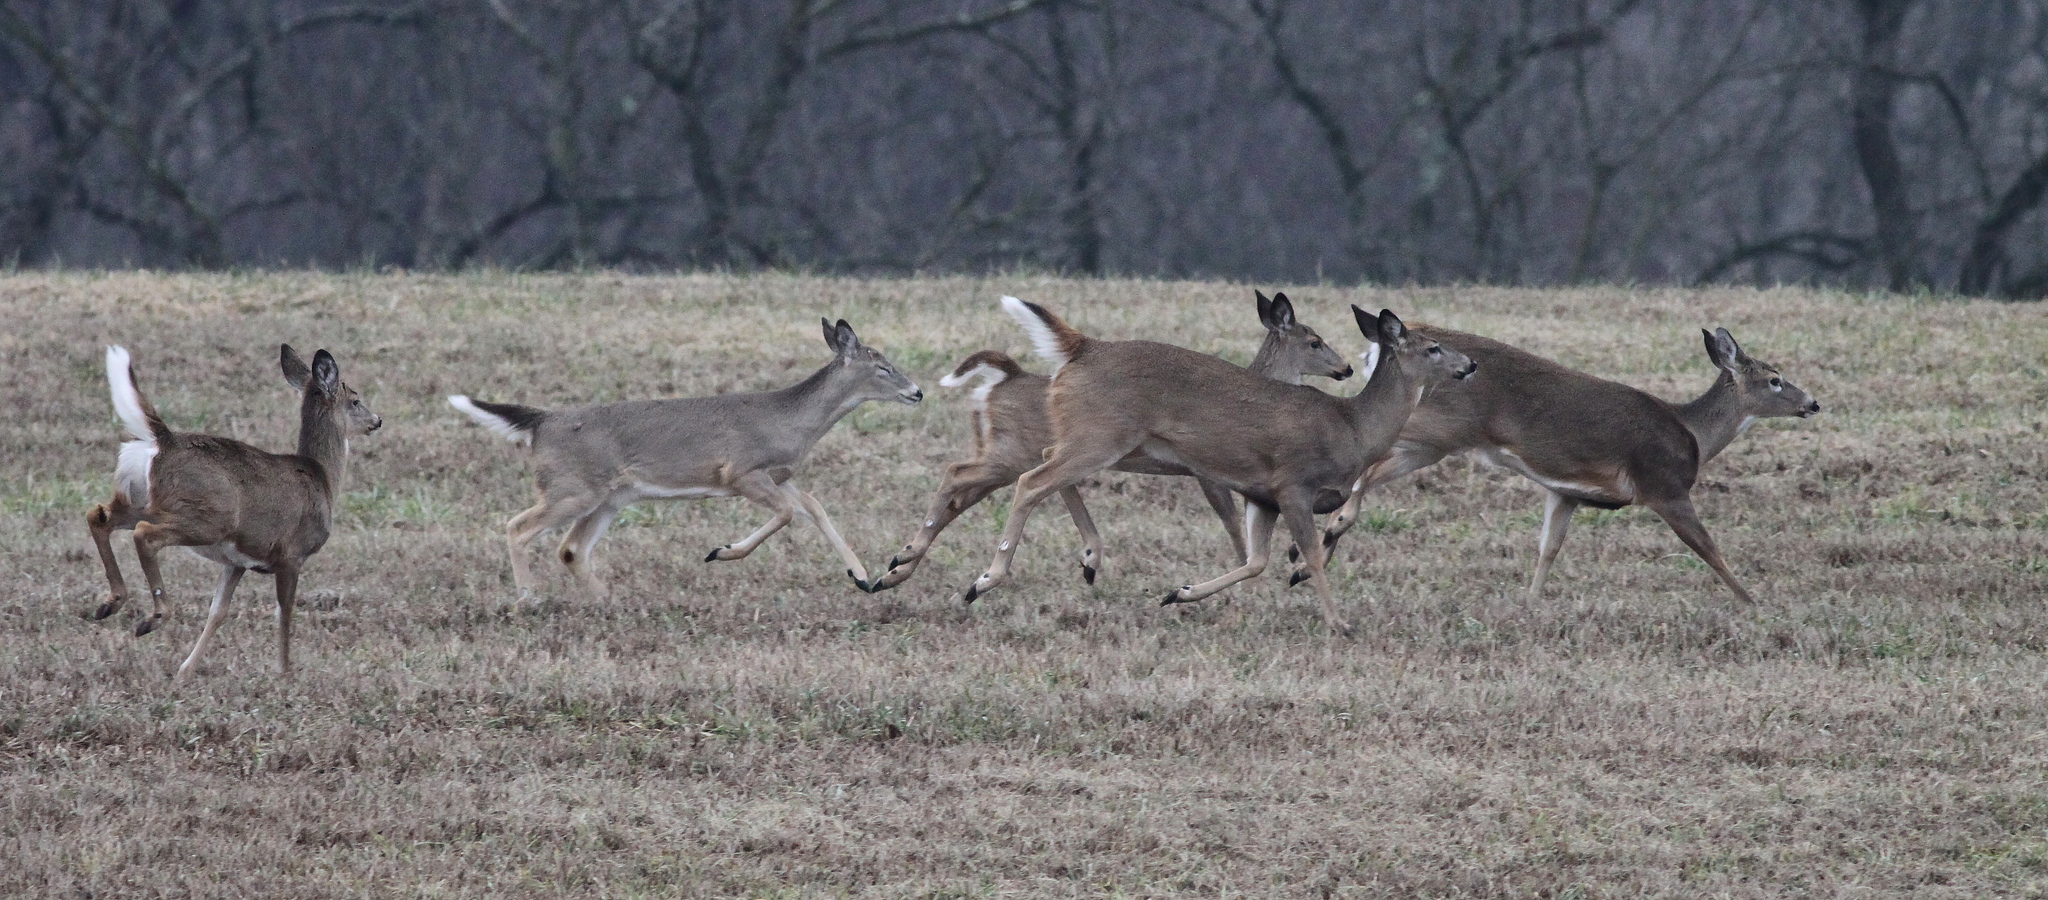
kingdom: Animalia
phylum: Chordata
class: Mammalia
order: Artiodactyla
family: Cervidae
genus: Odocoileus
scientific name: Odocoileus virginianus
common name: White-tailed deer
